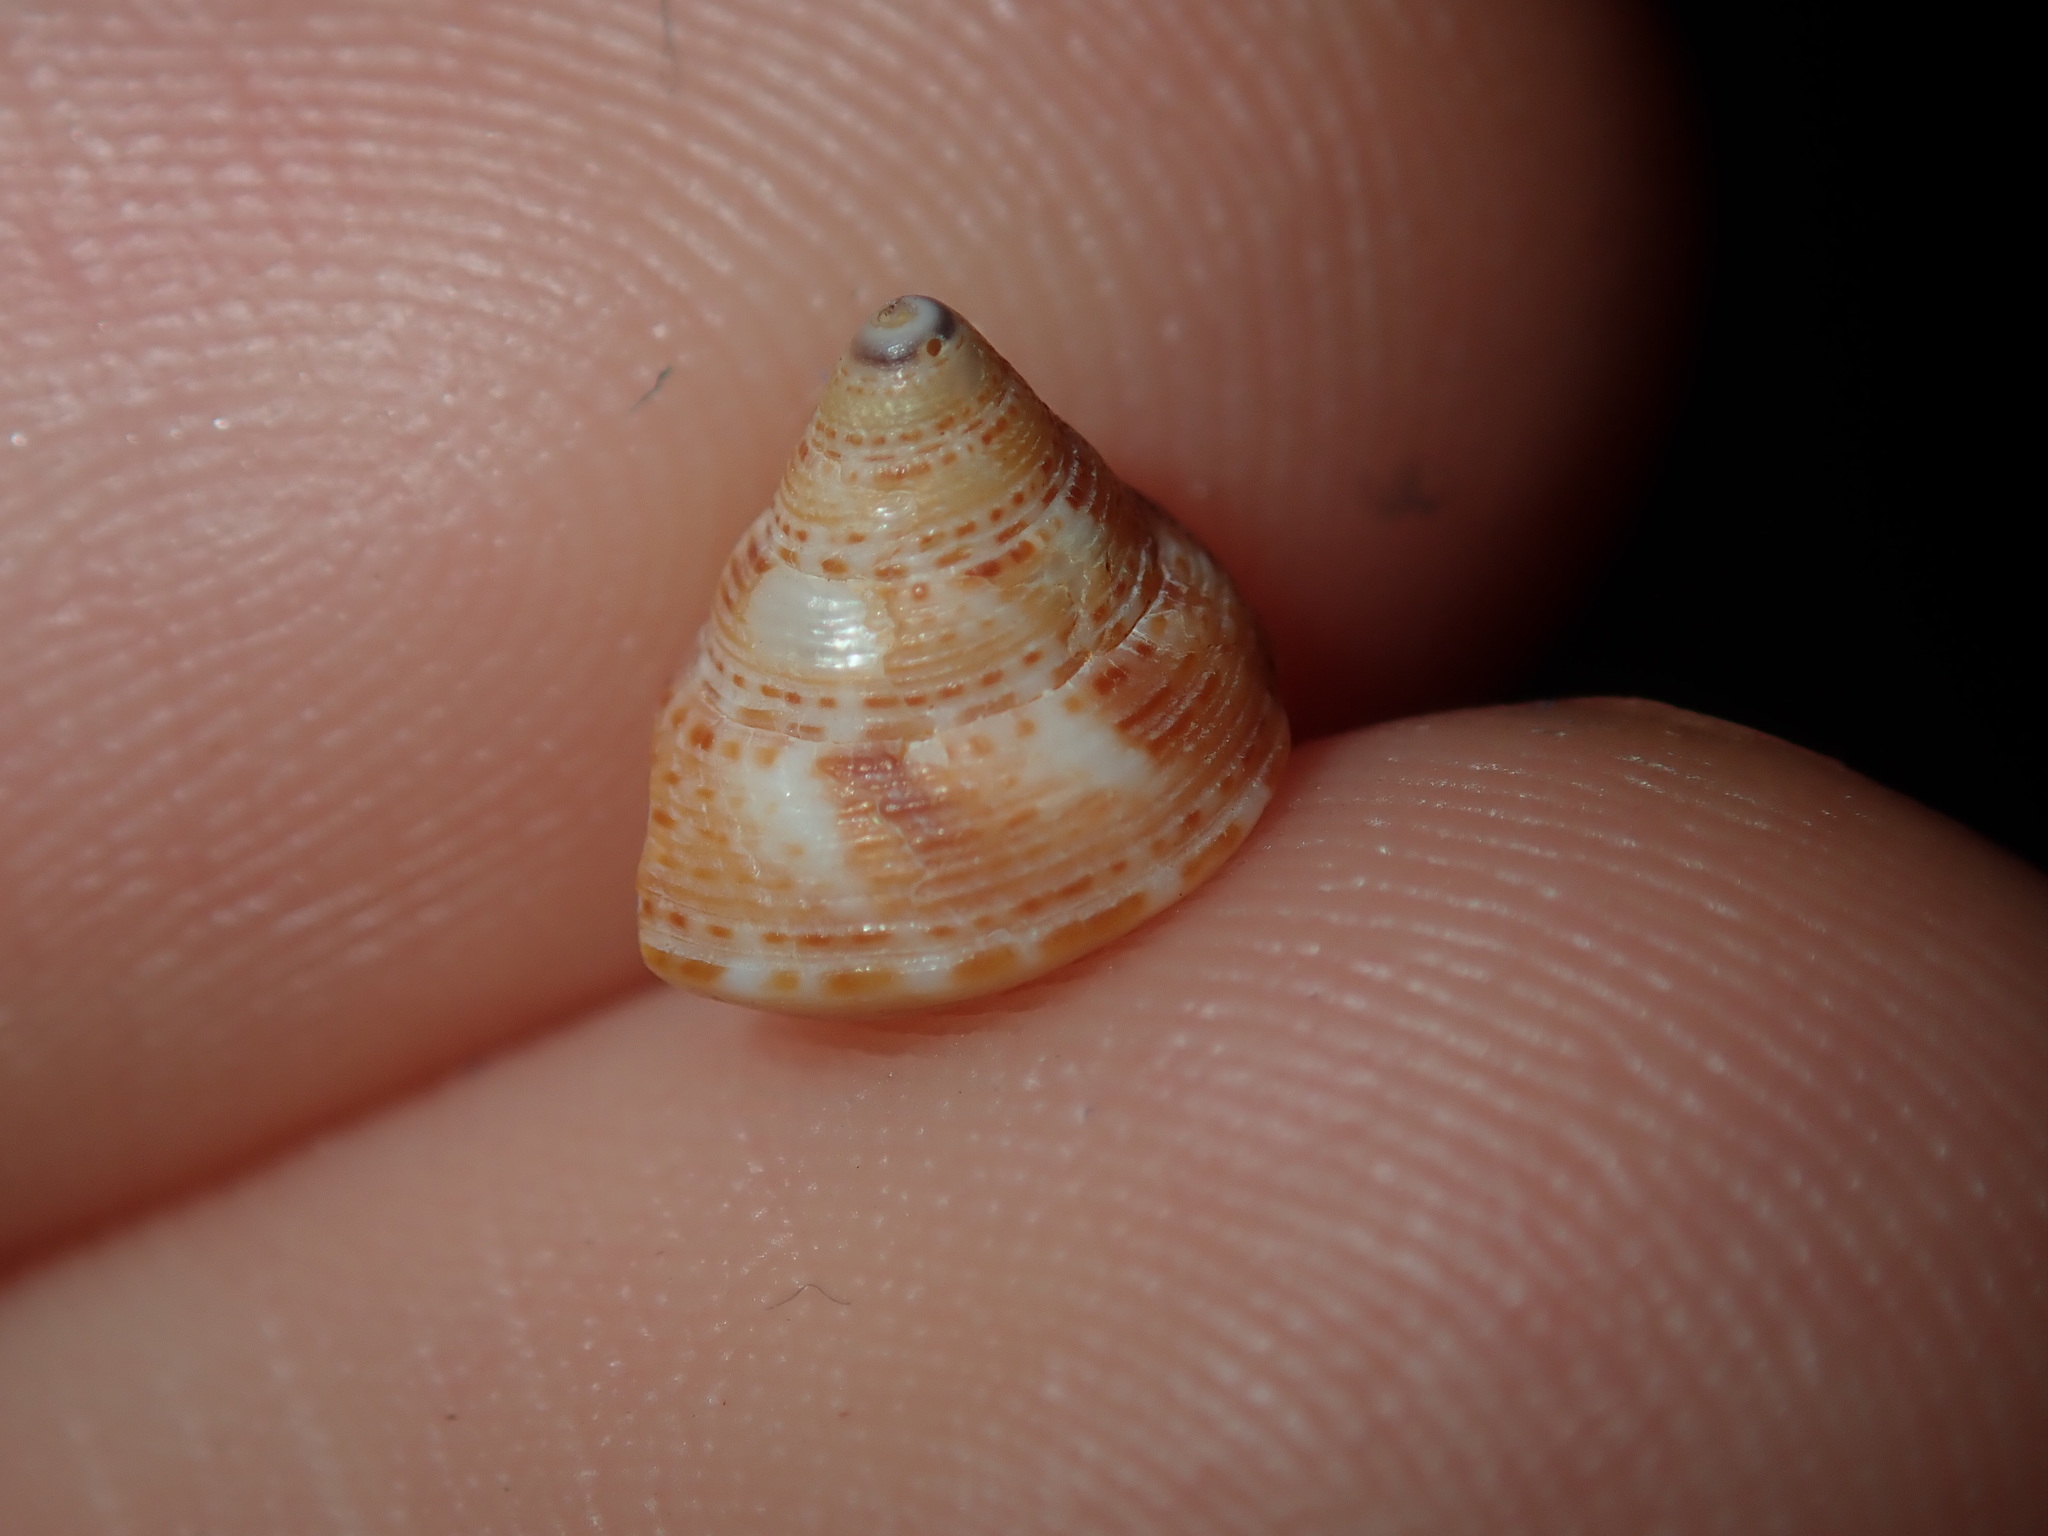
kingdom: Animalia
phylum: Mollusca
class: Gastropoda
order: Trochida
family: Calliostomatidae
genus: Astele
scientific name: Astele scitula
